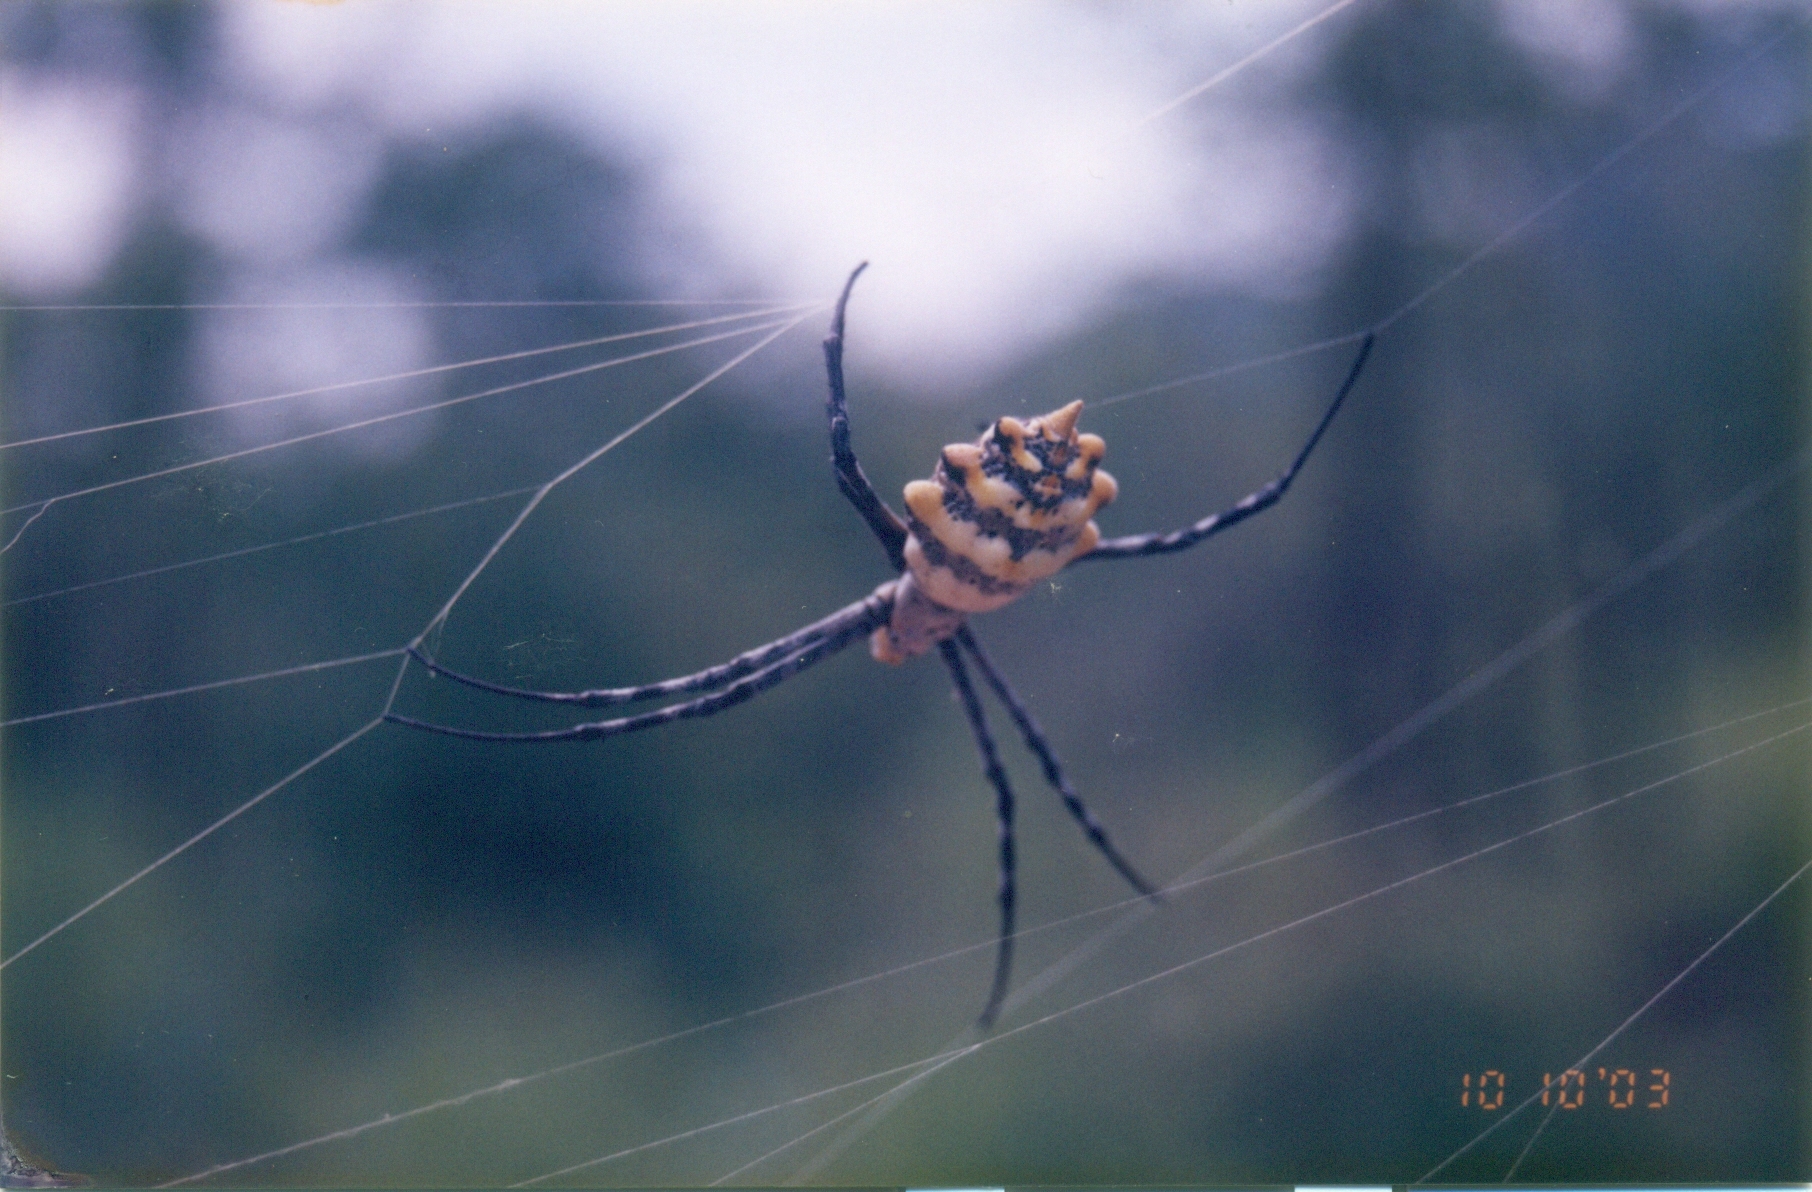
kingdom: Animalia
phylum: Arthropoda
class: Arachnida
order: Araneae
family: Araneidae
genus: Argiope
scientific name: Argiope lobata
